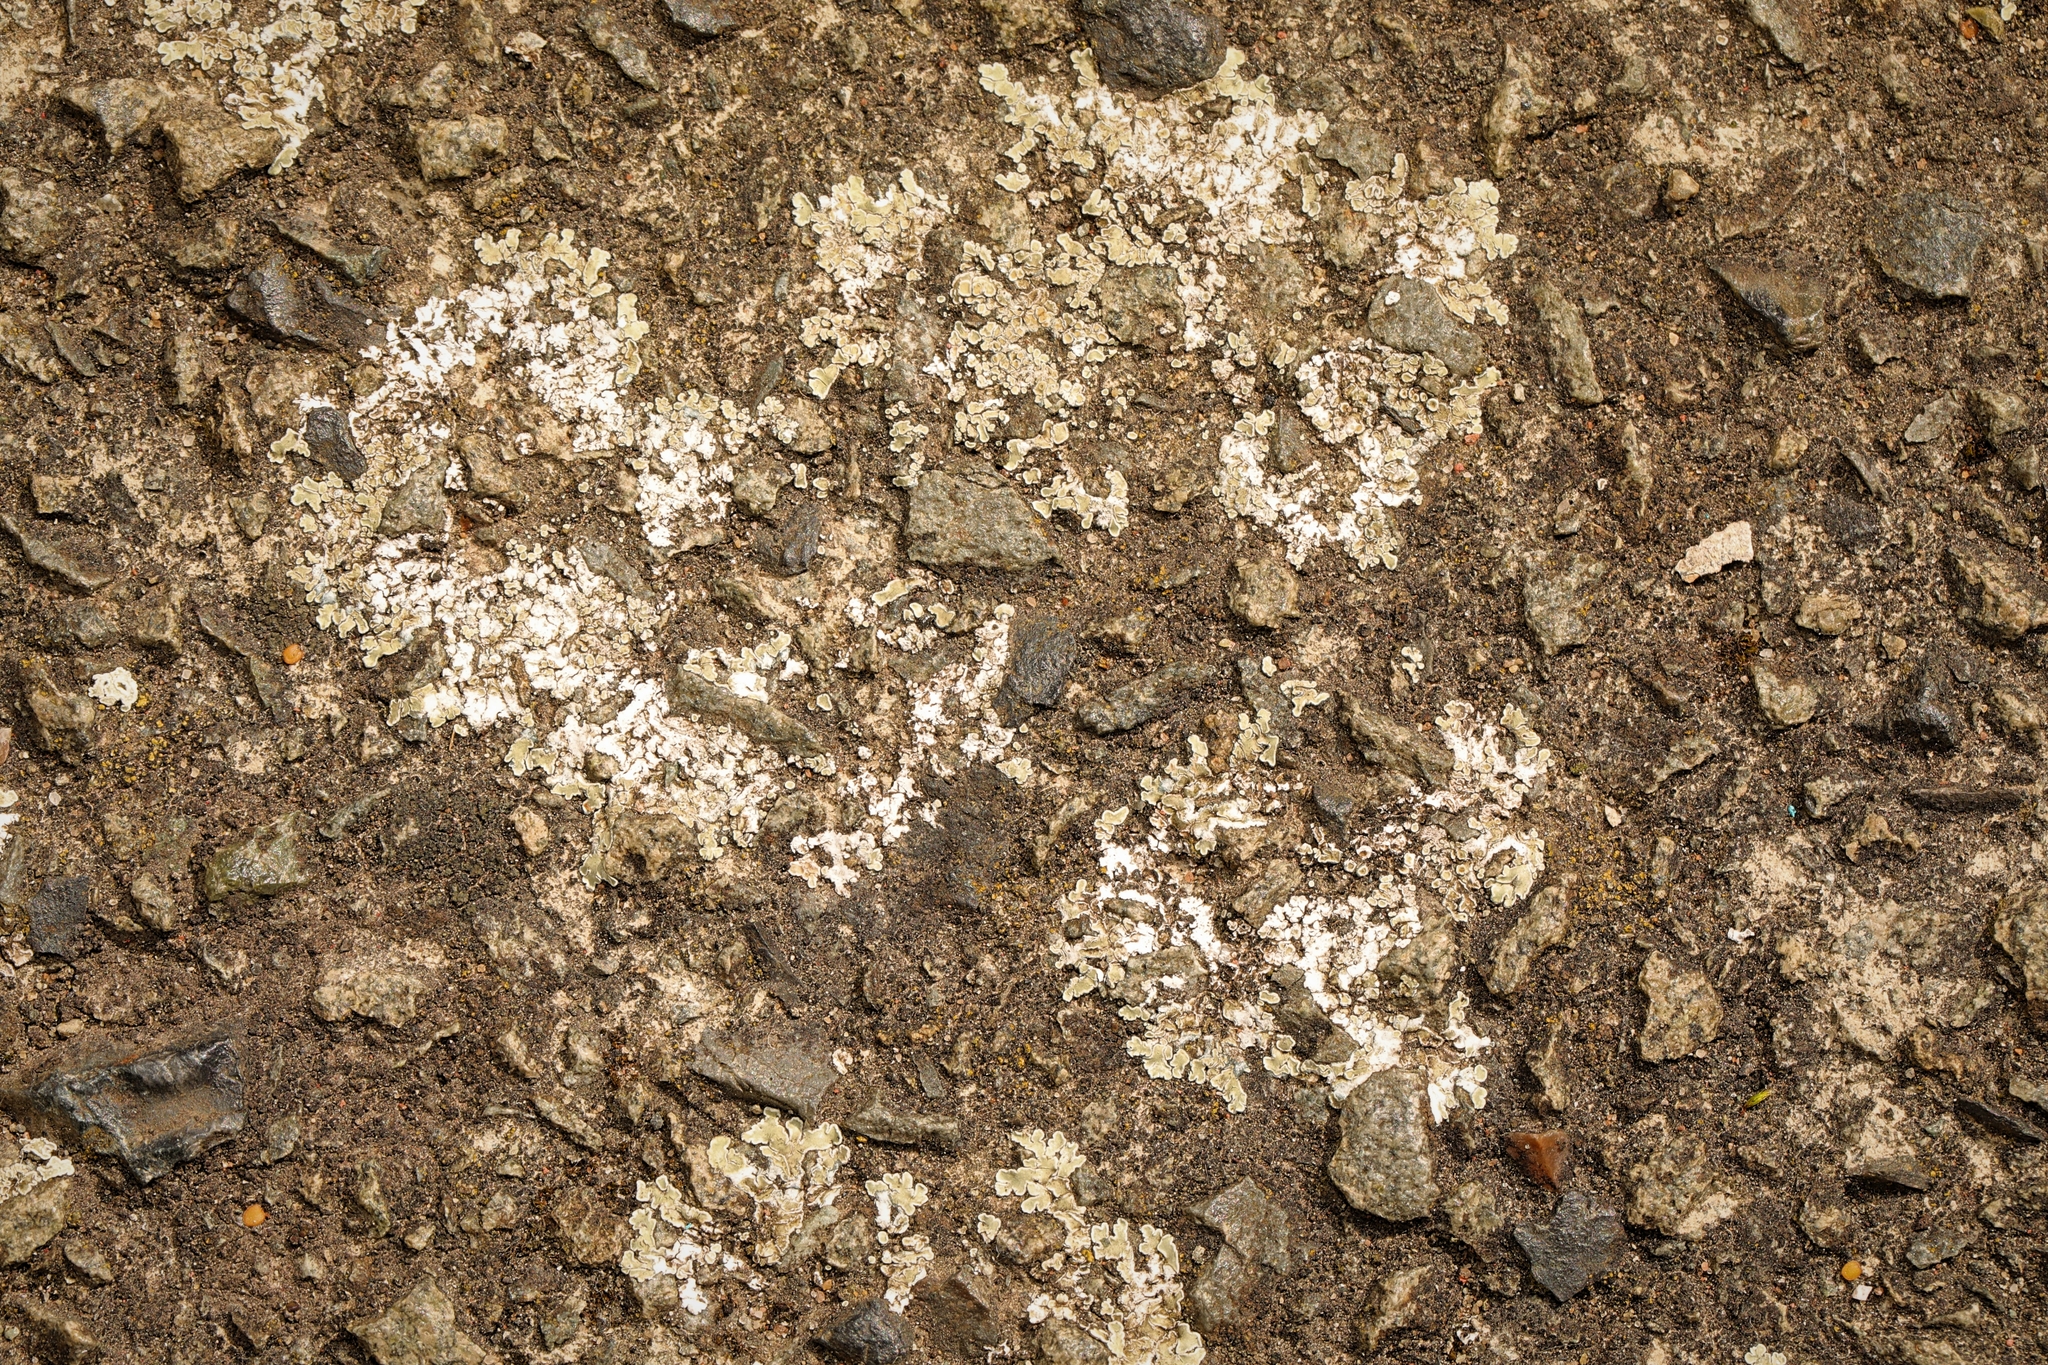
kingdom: Fungi
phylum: Ascomycota
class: Lecanoromycetes
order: Lecanorales
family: Lecanoraceae
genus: Protoparmeliopsis
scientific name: Protoparmeliopsis muralis
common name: Stonewall rim lichen
